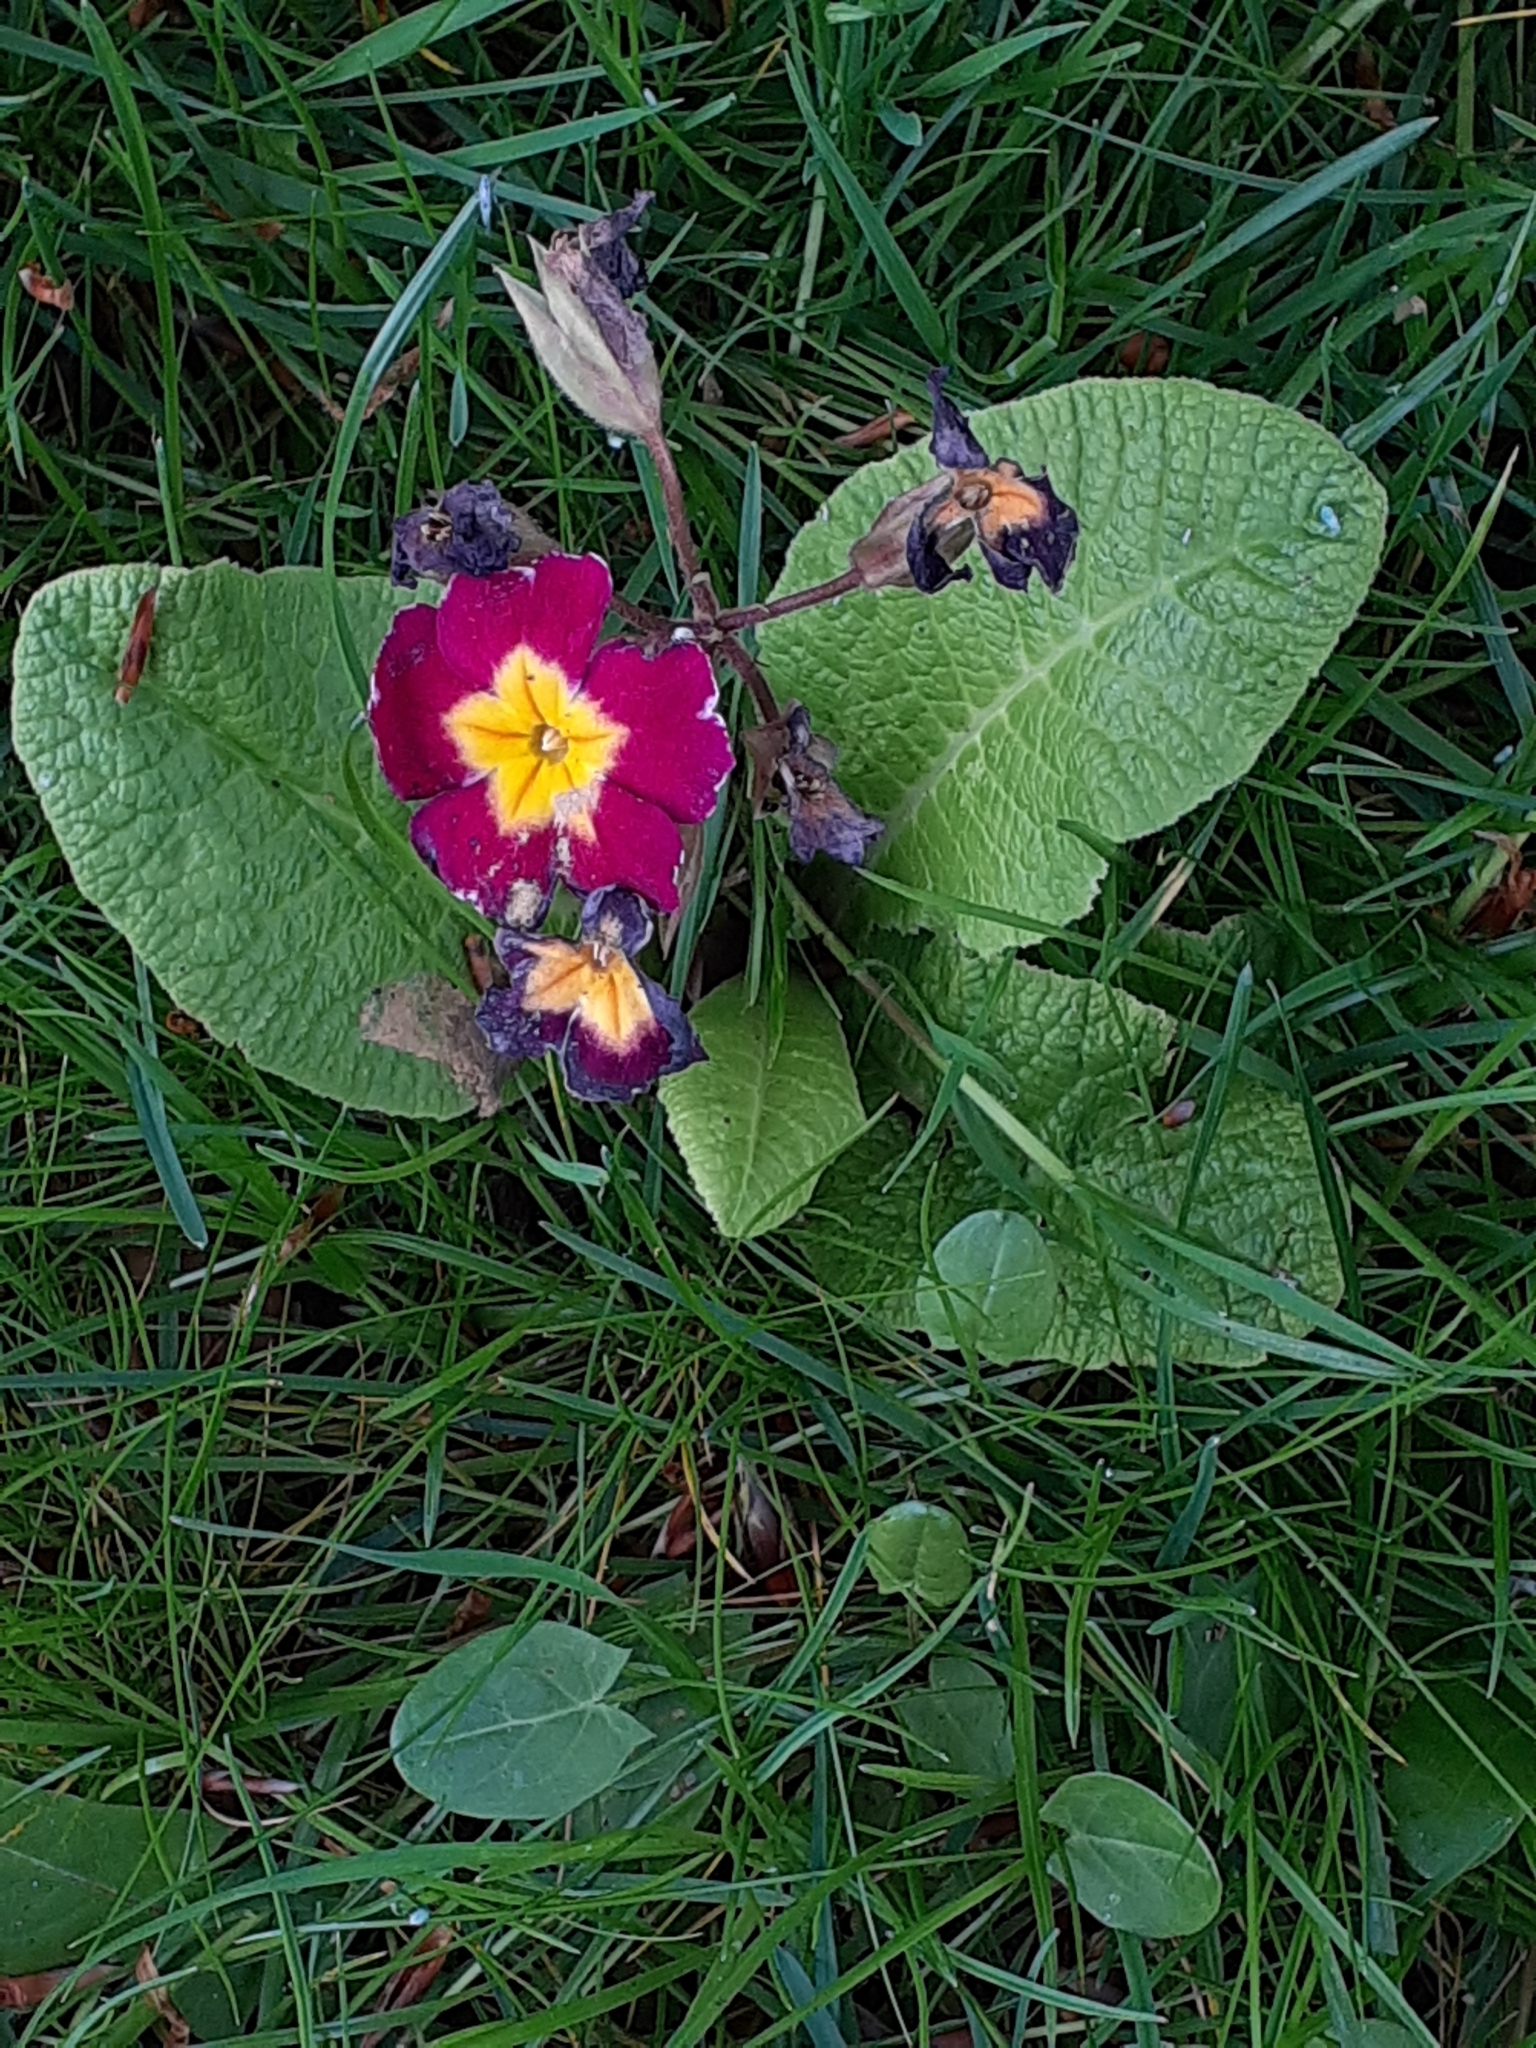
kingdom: Plantae
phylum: Tracheophyta
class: Magnoliopsida
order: Ericales
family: Primulaceae
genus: Primula
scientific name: Primula polyantha
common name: False oxlip
